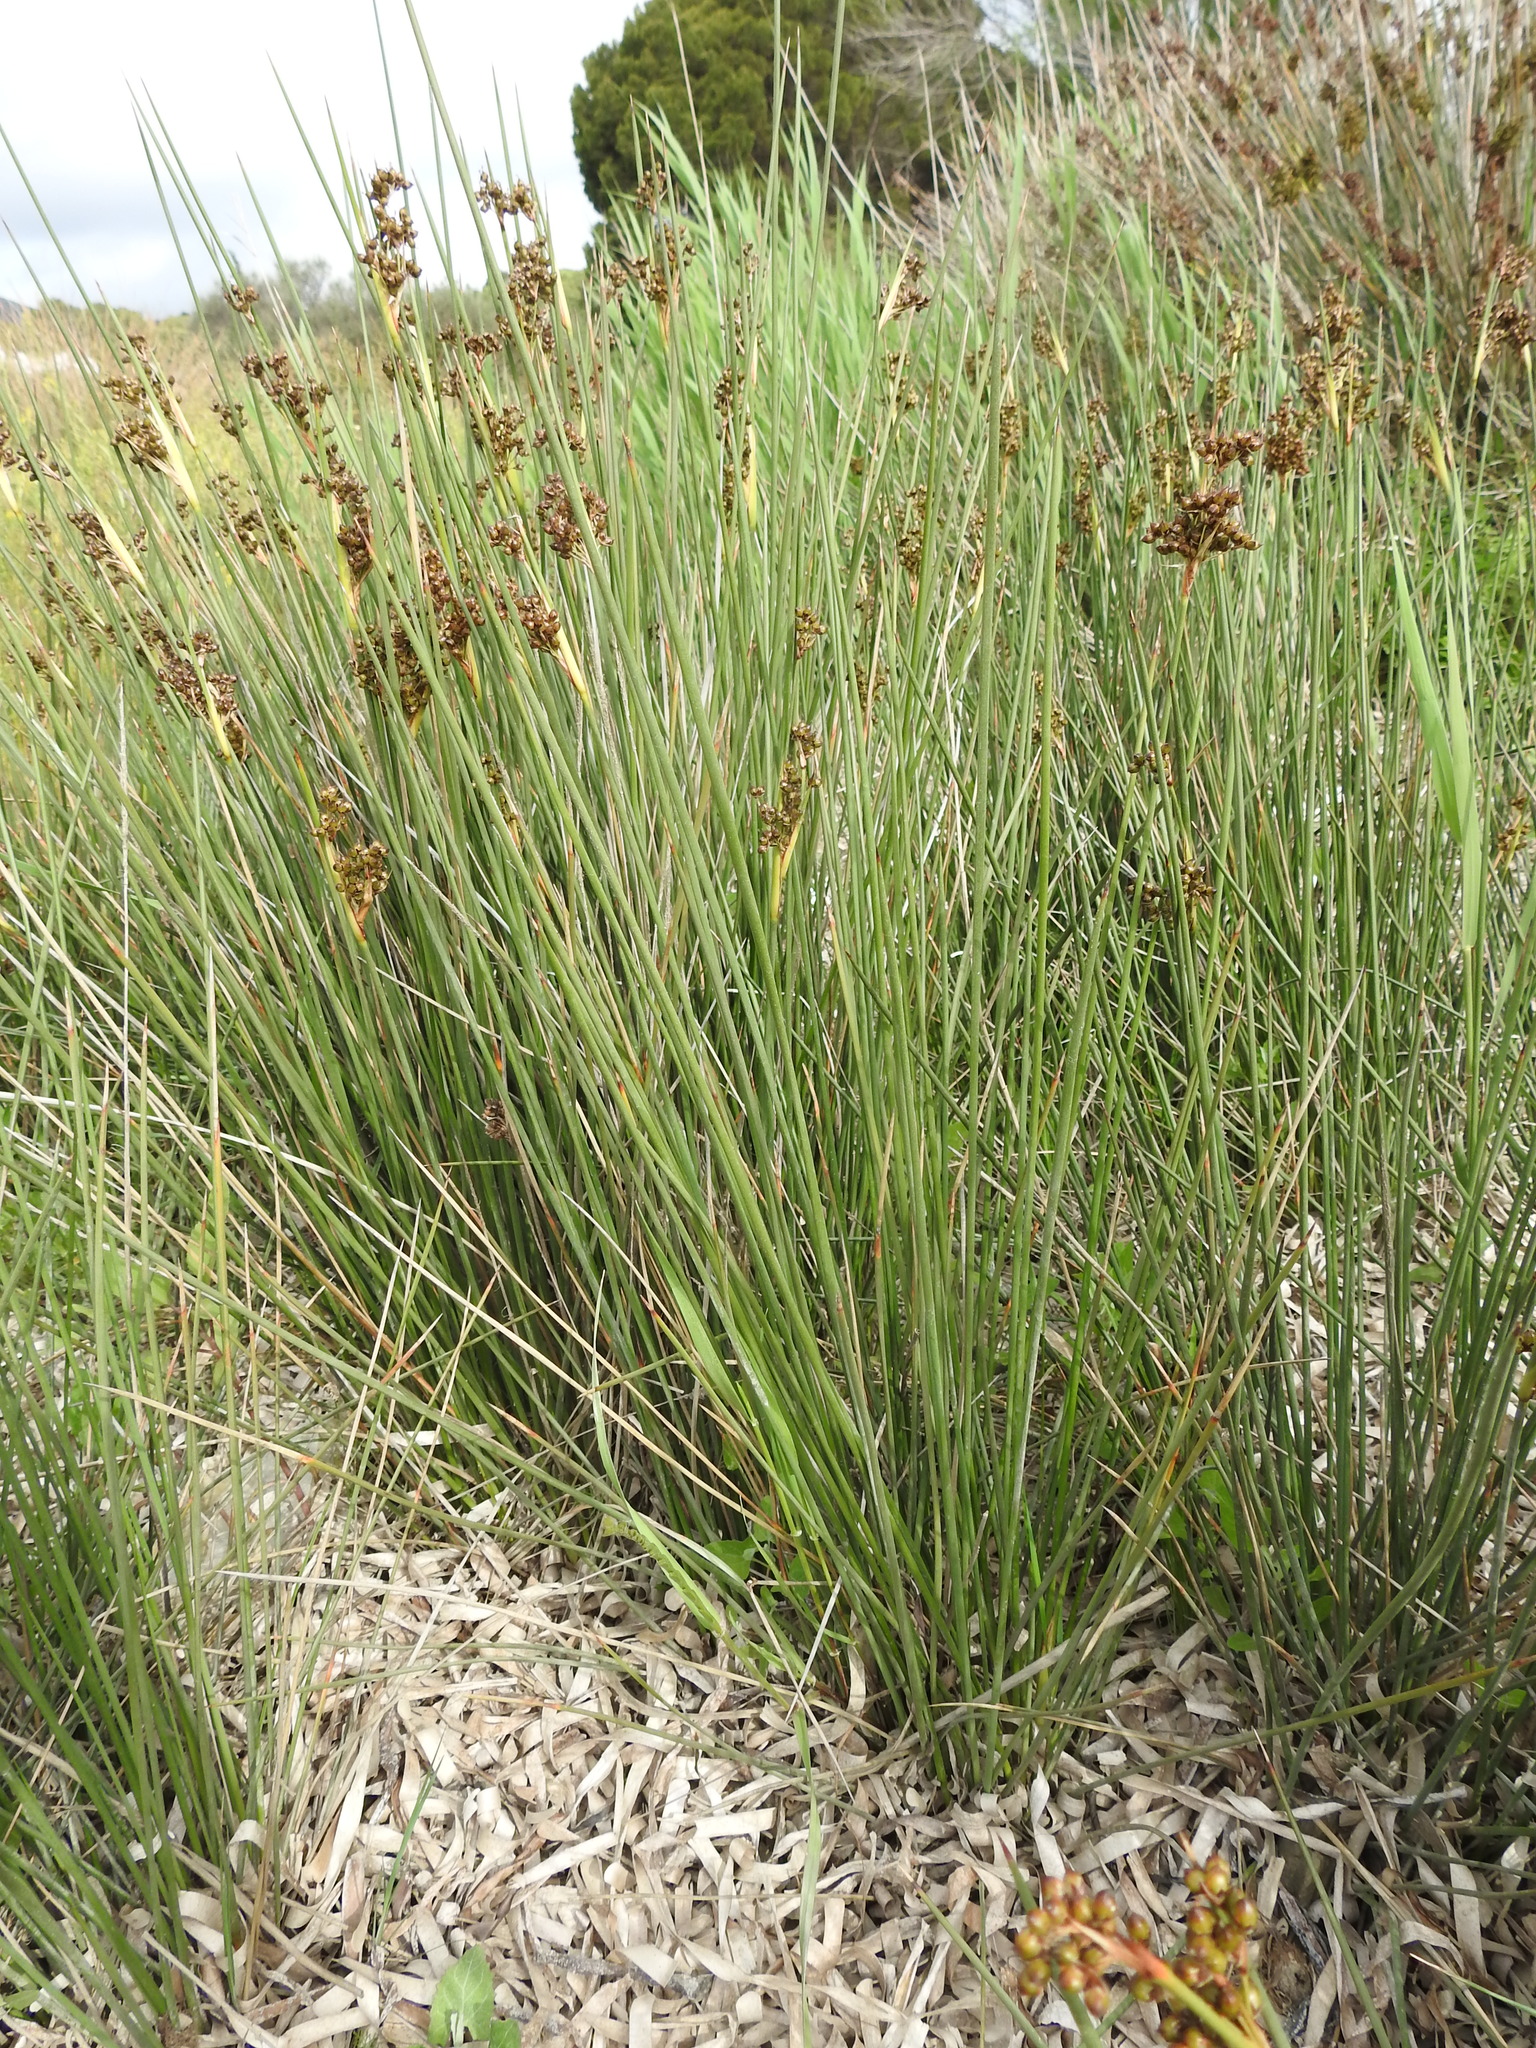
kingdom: Plantae
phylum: Tracheophyta
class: Liliopsida
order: Poales
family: Juncaceae
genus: Juncus
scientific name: Juncus acutus
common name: Sharp rush
